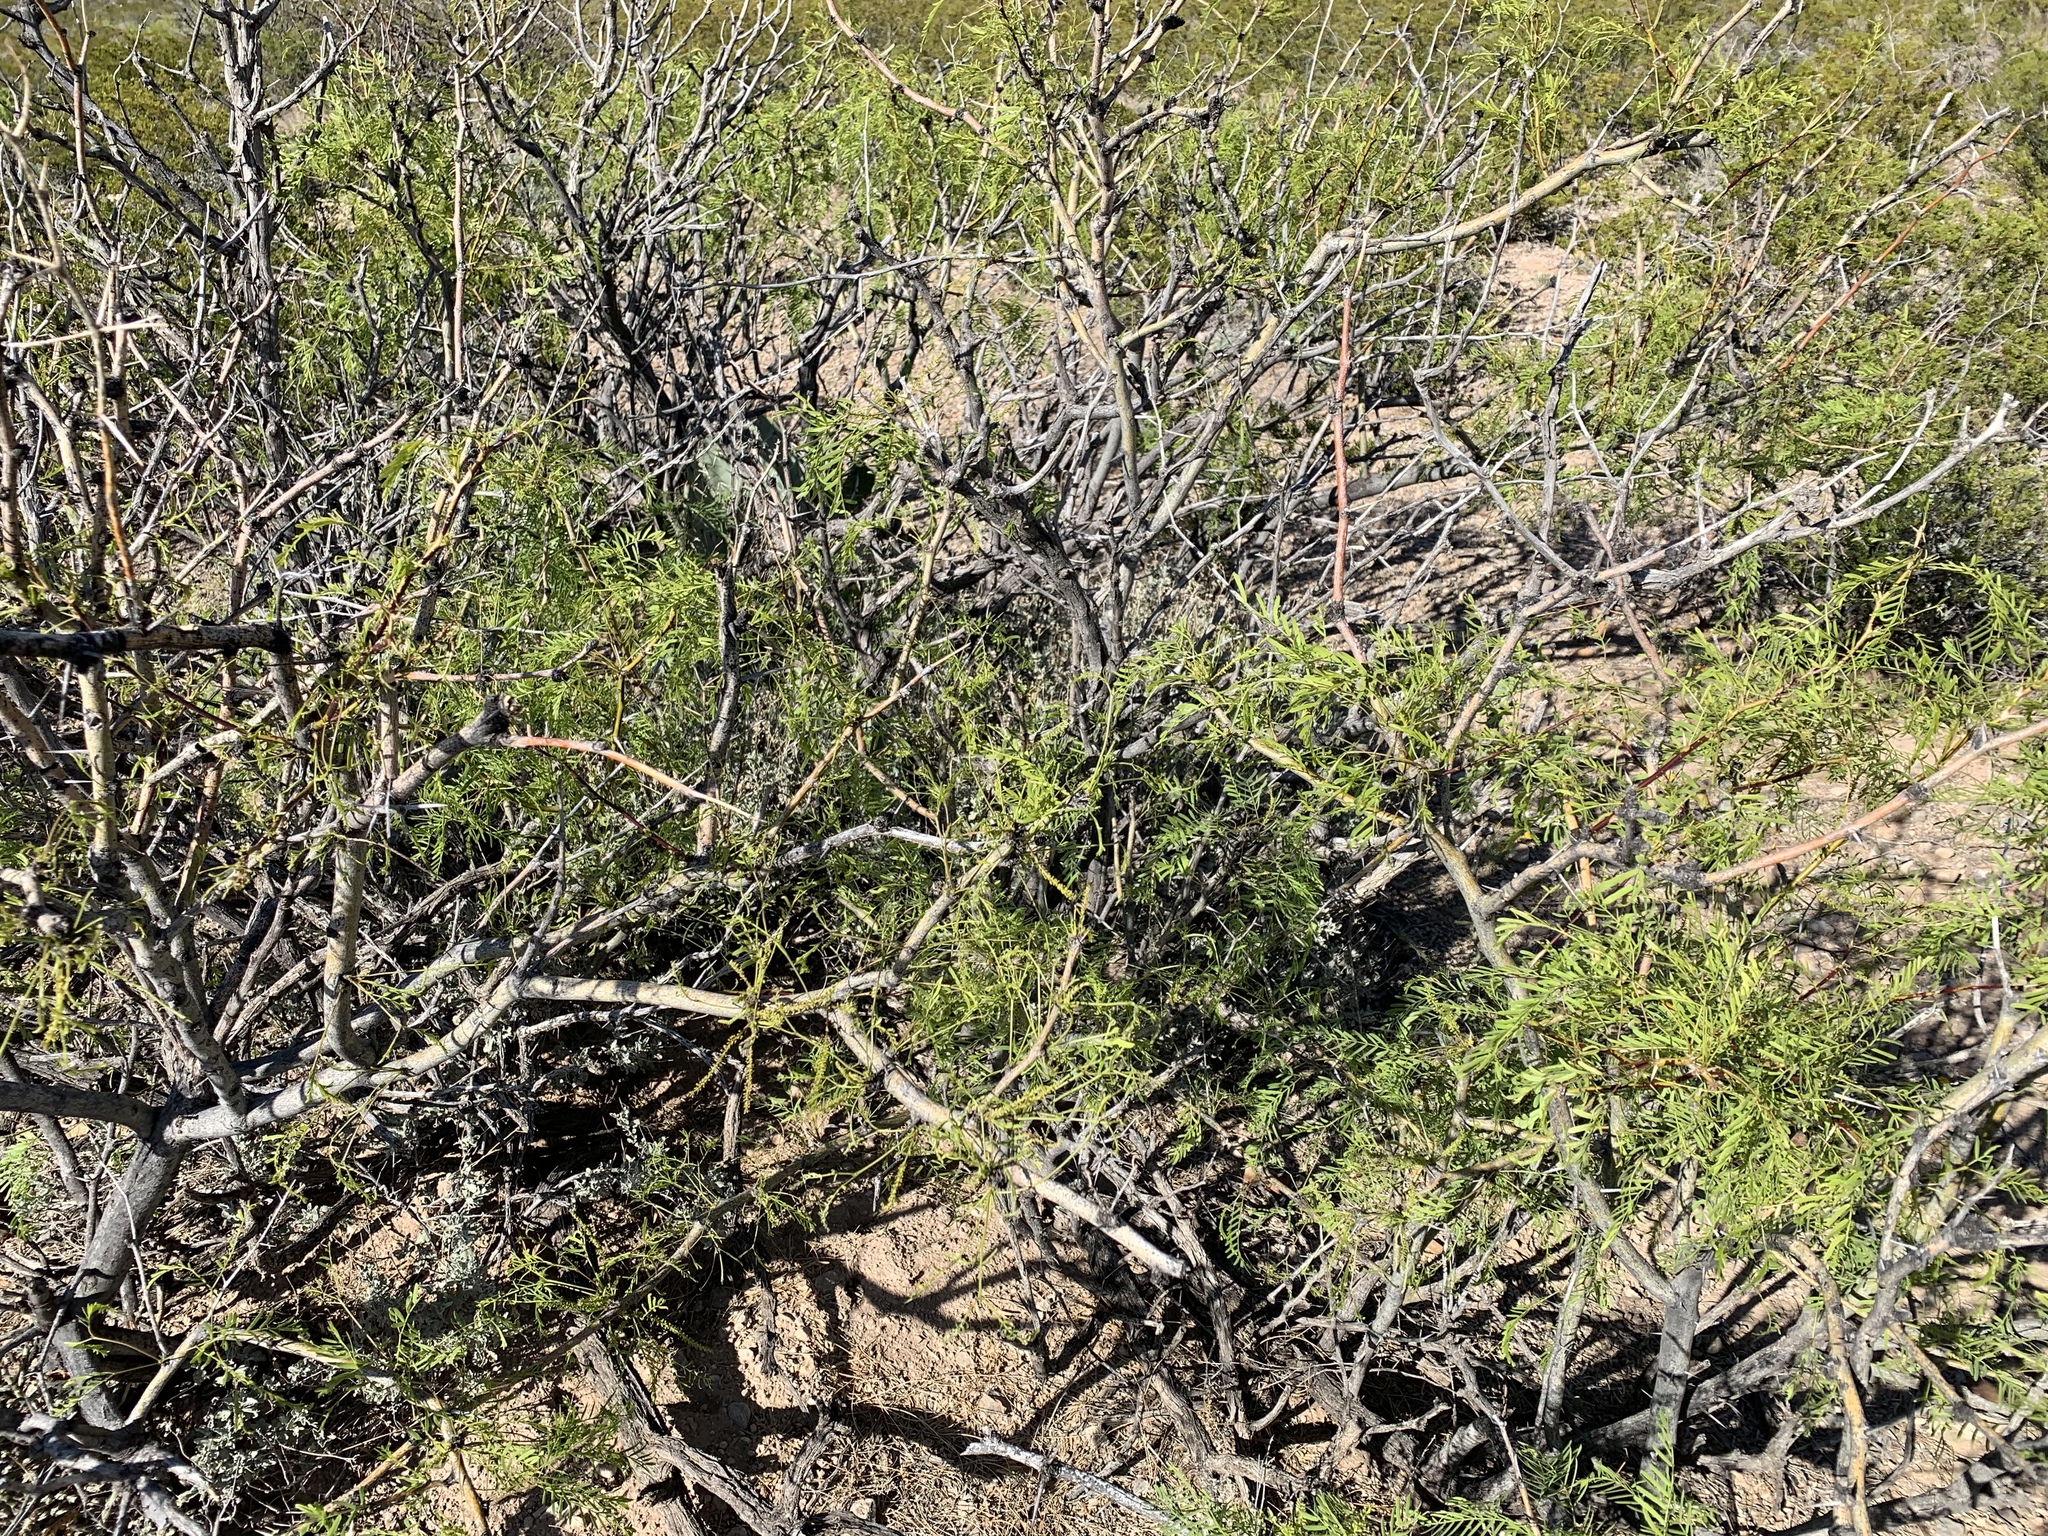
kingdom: Plantae
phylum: Tracheophyta
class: Magnoliopsida
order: Fabales
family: Fabaceae
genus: Prosopis
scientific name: Prosopis glandulosa
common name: Honey mesquite
